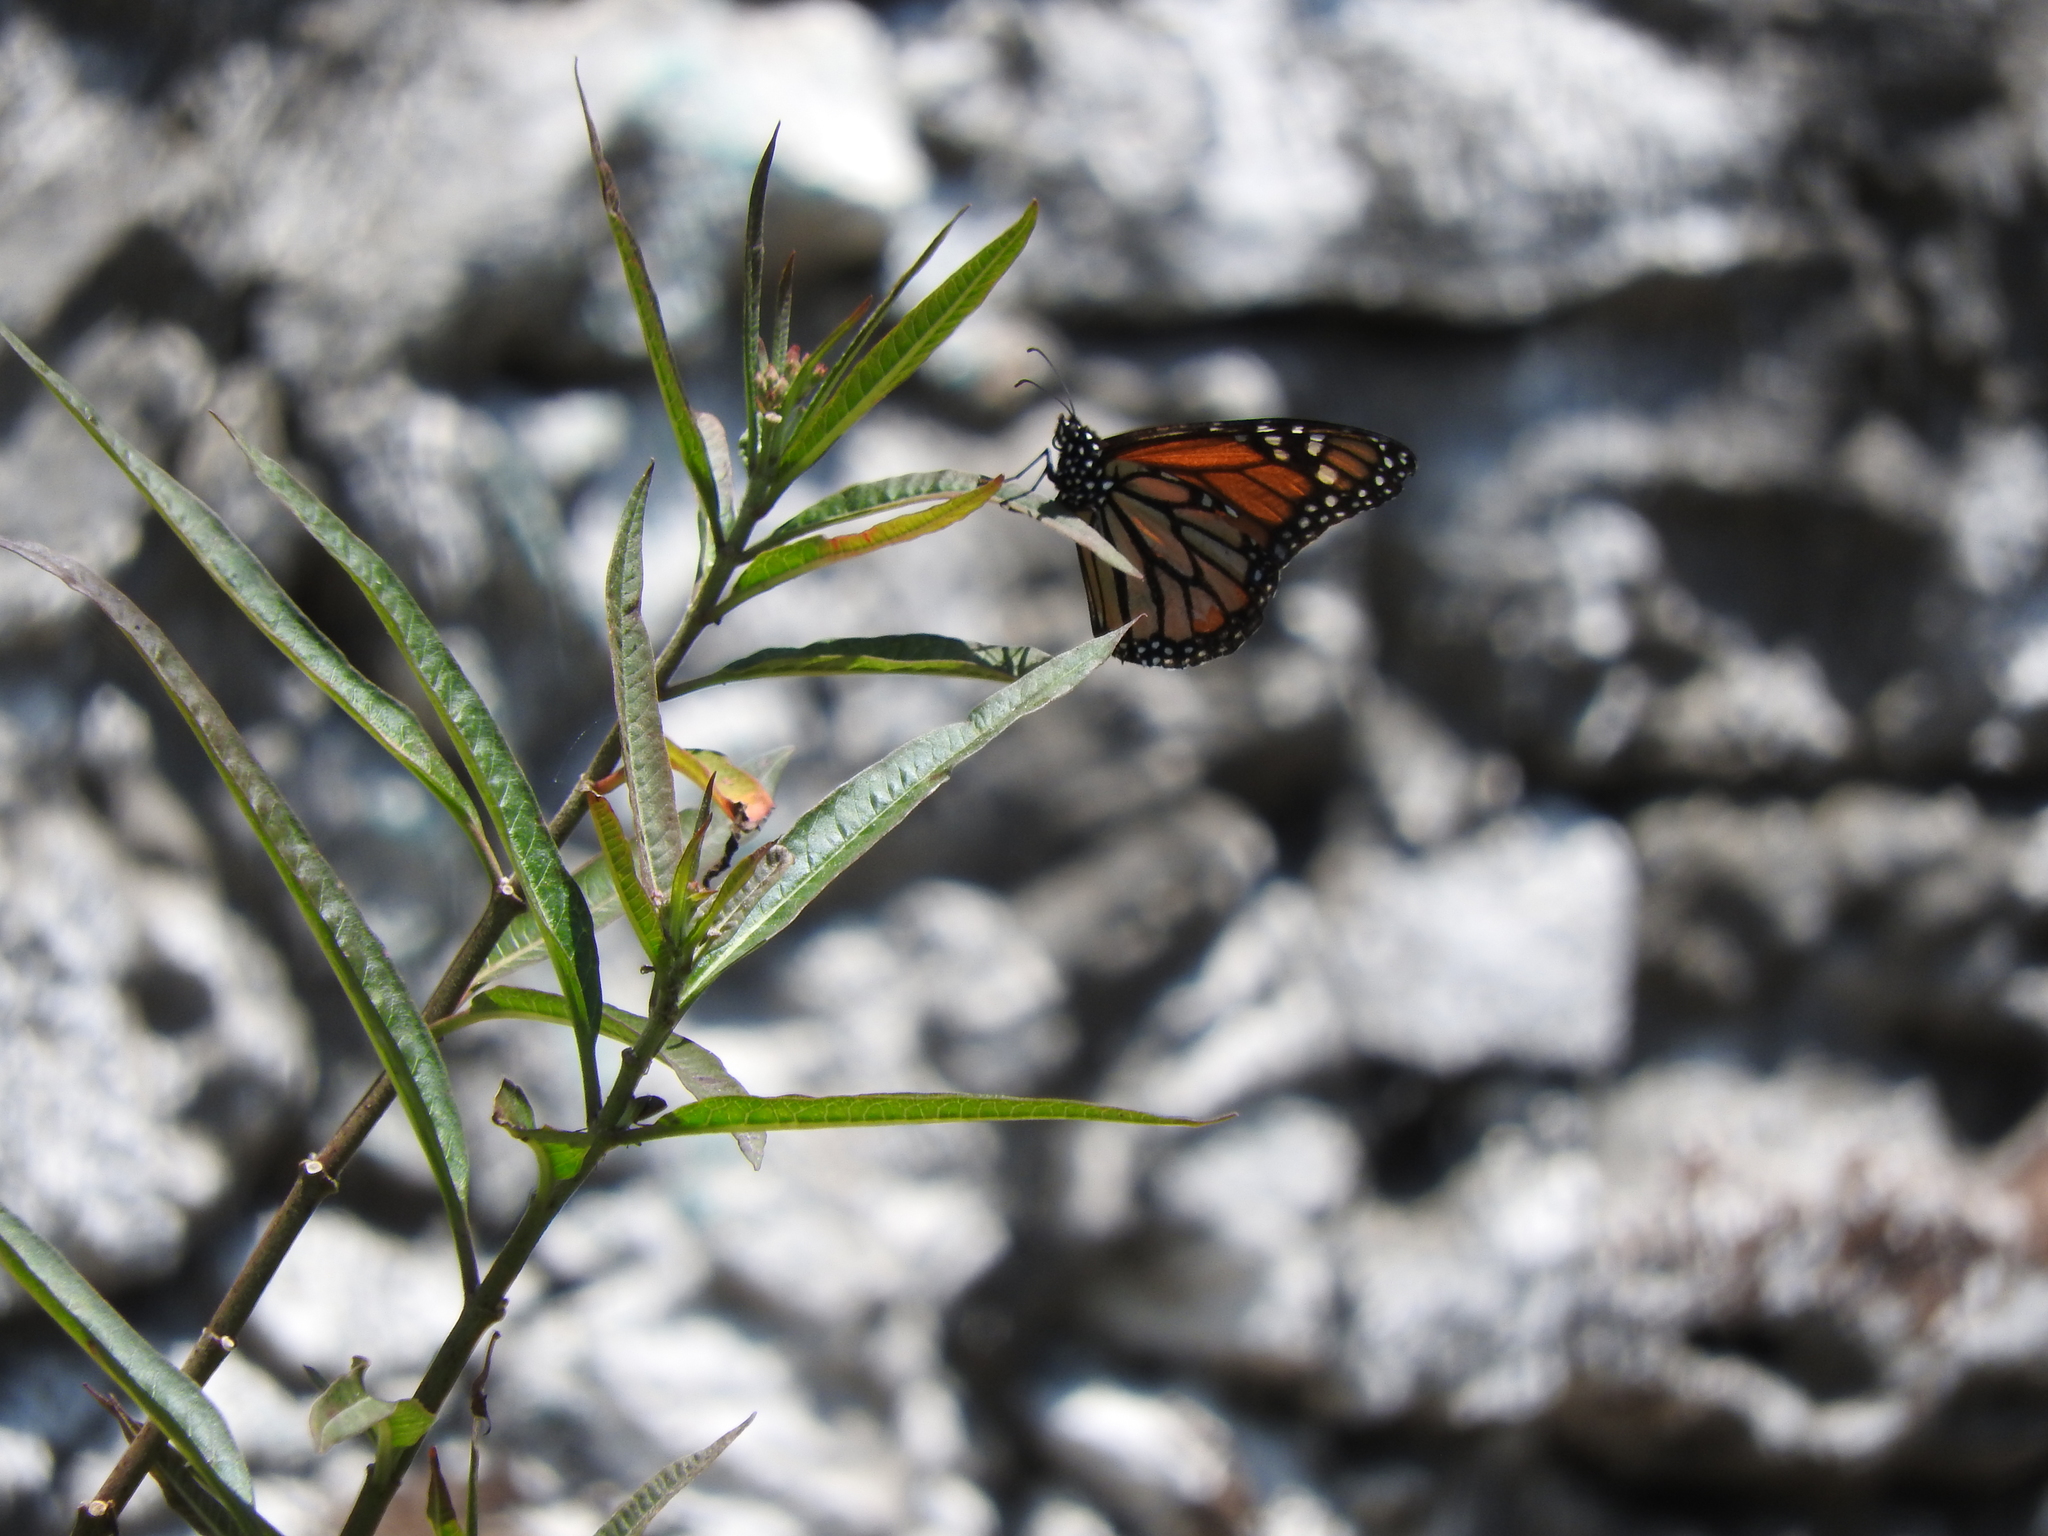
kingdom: Animalia
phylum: Arthropoda
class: Insecta
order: Lepidoptera
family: Nymphalidae
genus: Danaus
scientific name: Danaus plexippus
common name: Monarch
